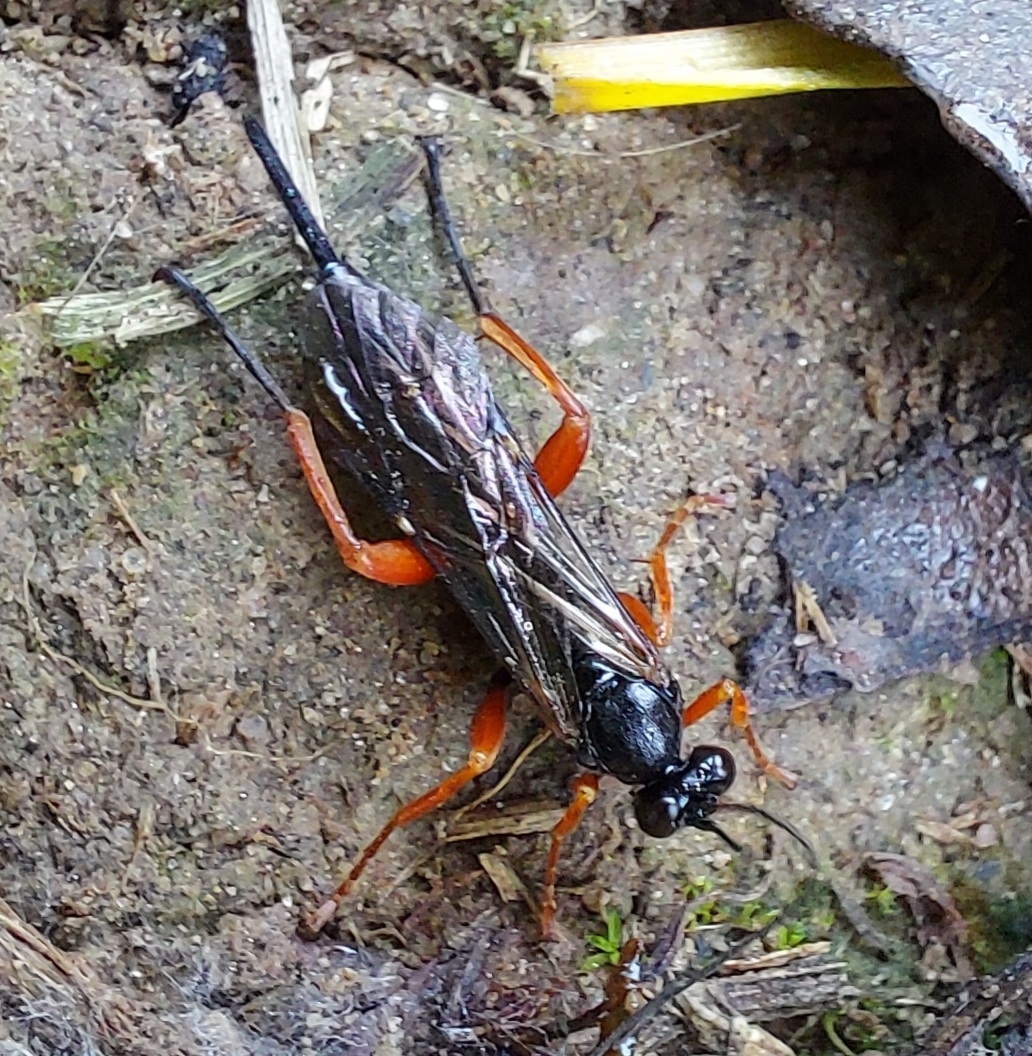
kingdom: Animalia
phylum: Arthropoda
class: Insecta
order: Hymenoptera
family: Ichneumonidae
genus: Pimpla
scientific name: Pimpla rufipes
